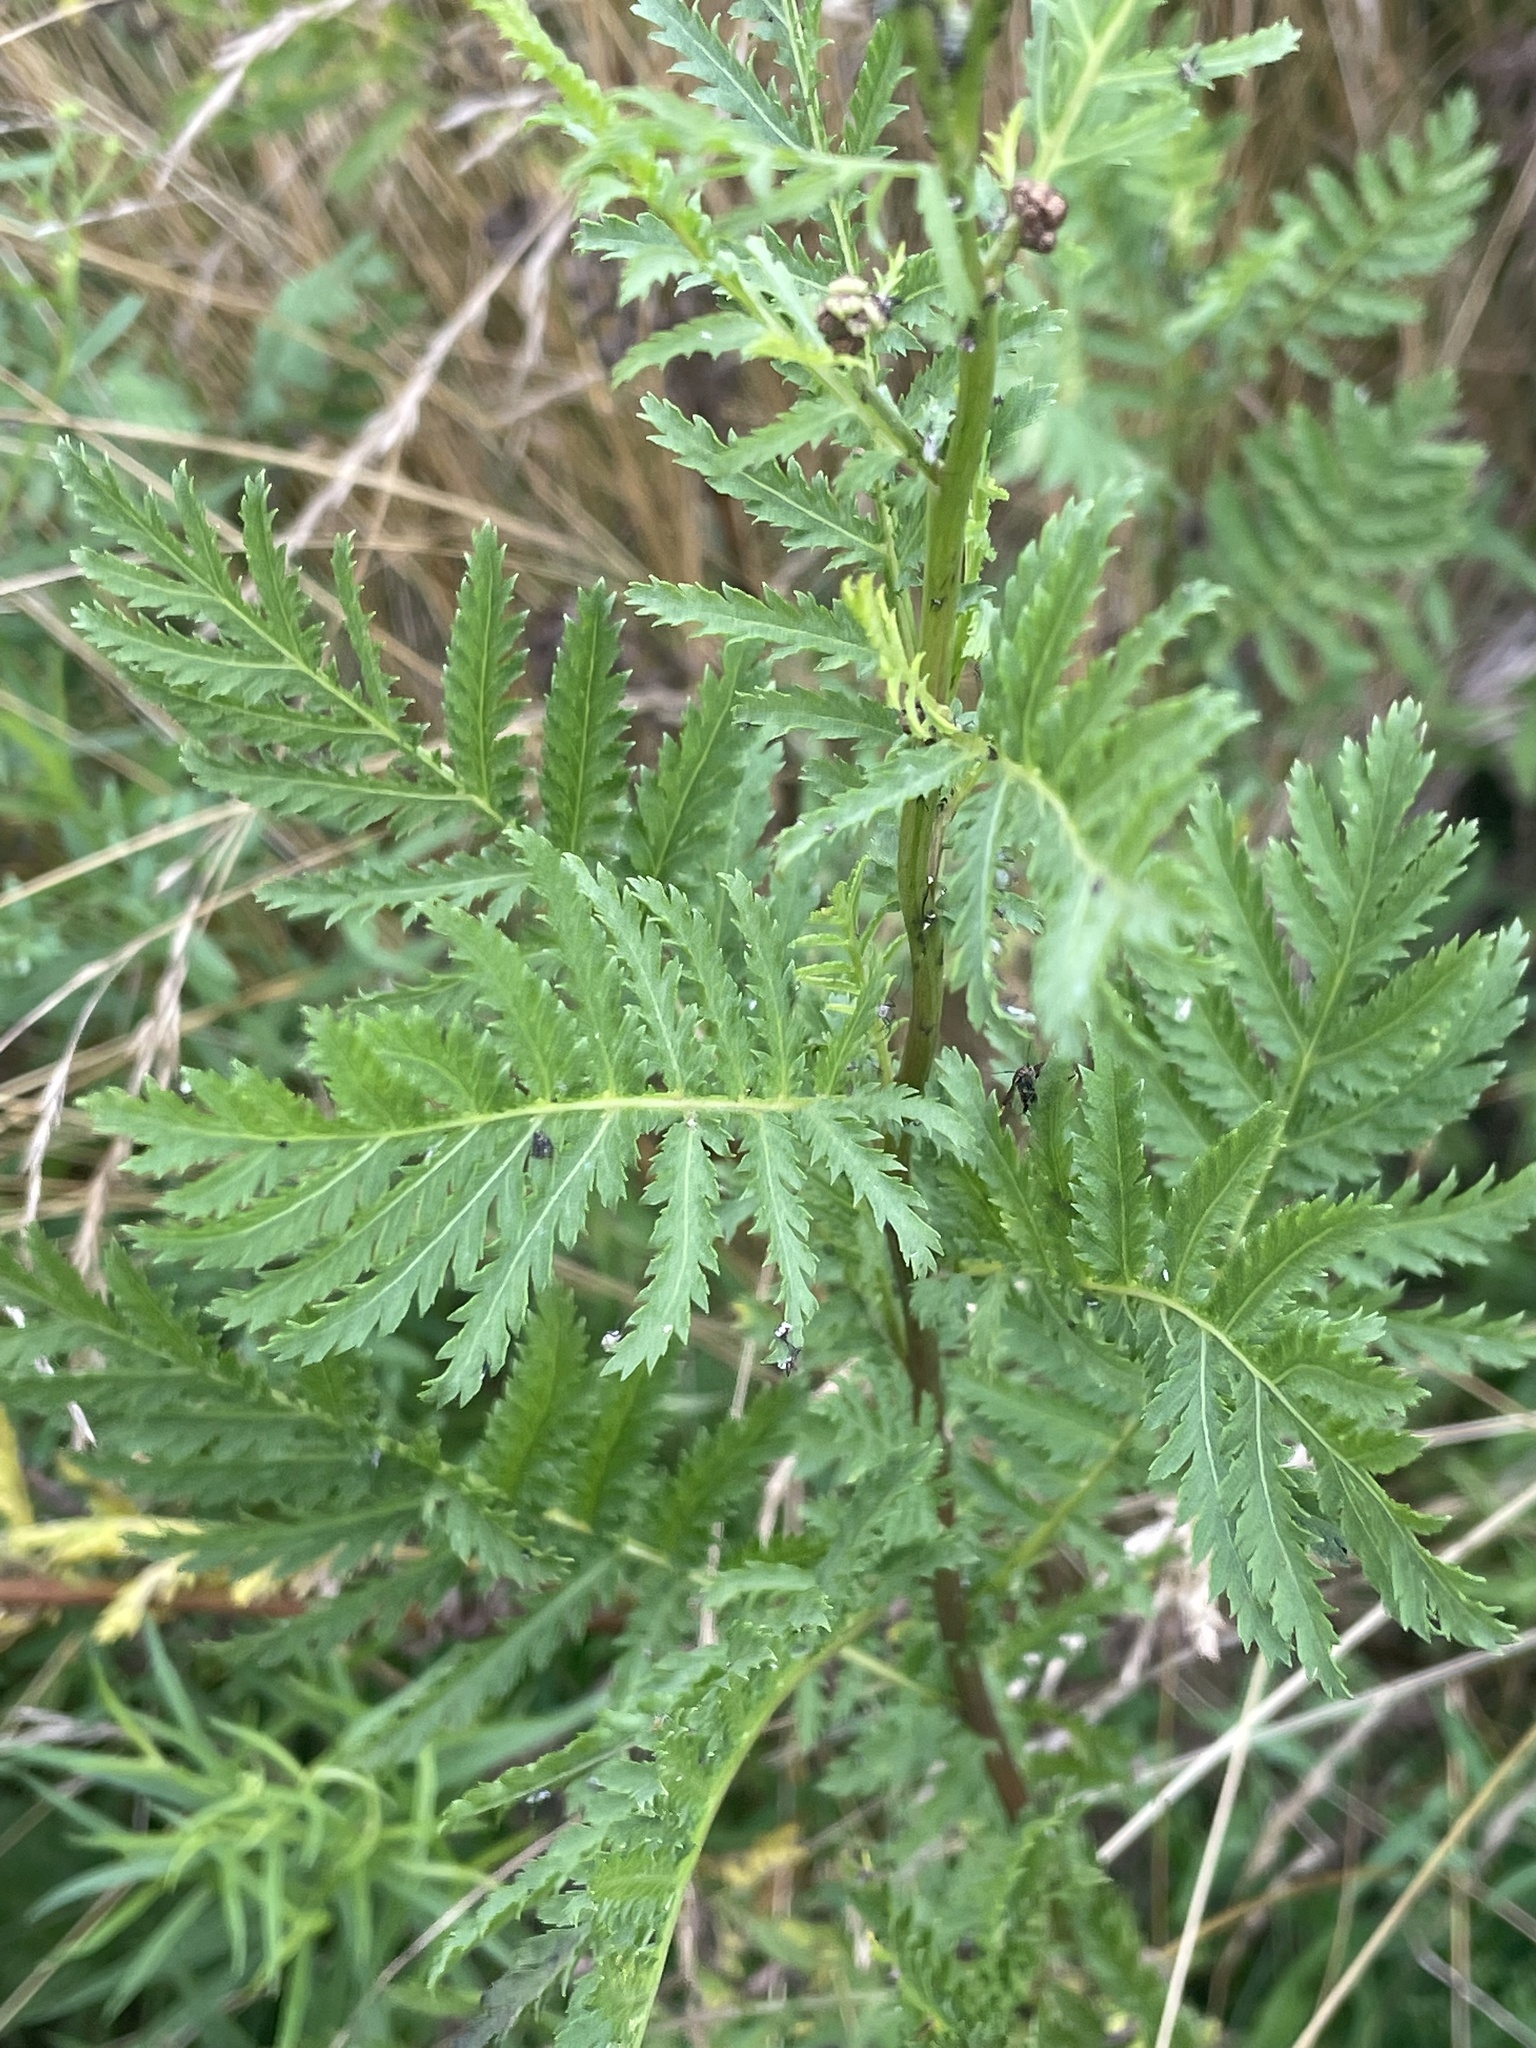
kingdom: Plantae
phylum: Tracheophyta
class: Magnoliopsida
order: Asterales
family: Asteraceae
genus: Tanacetum
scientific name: Tanacetum vulgare
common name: Common tansy
